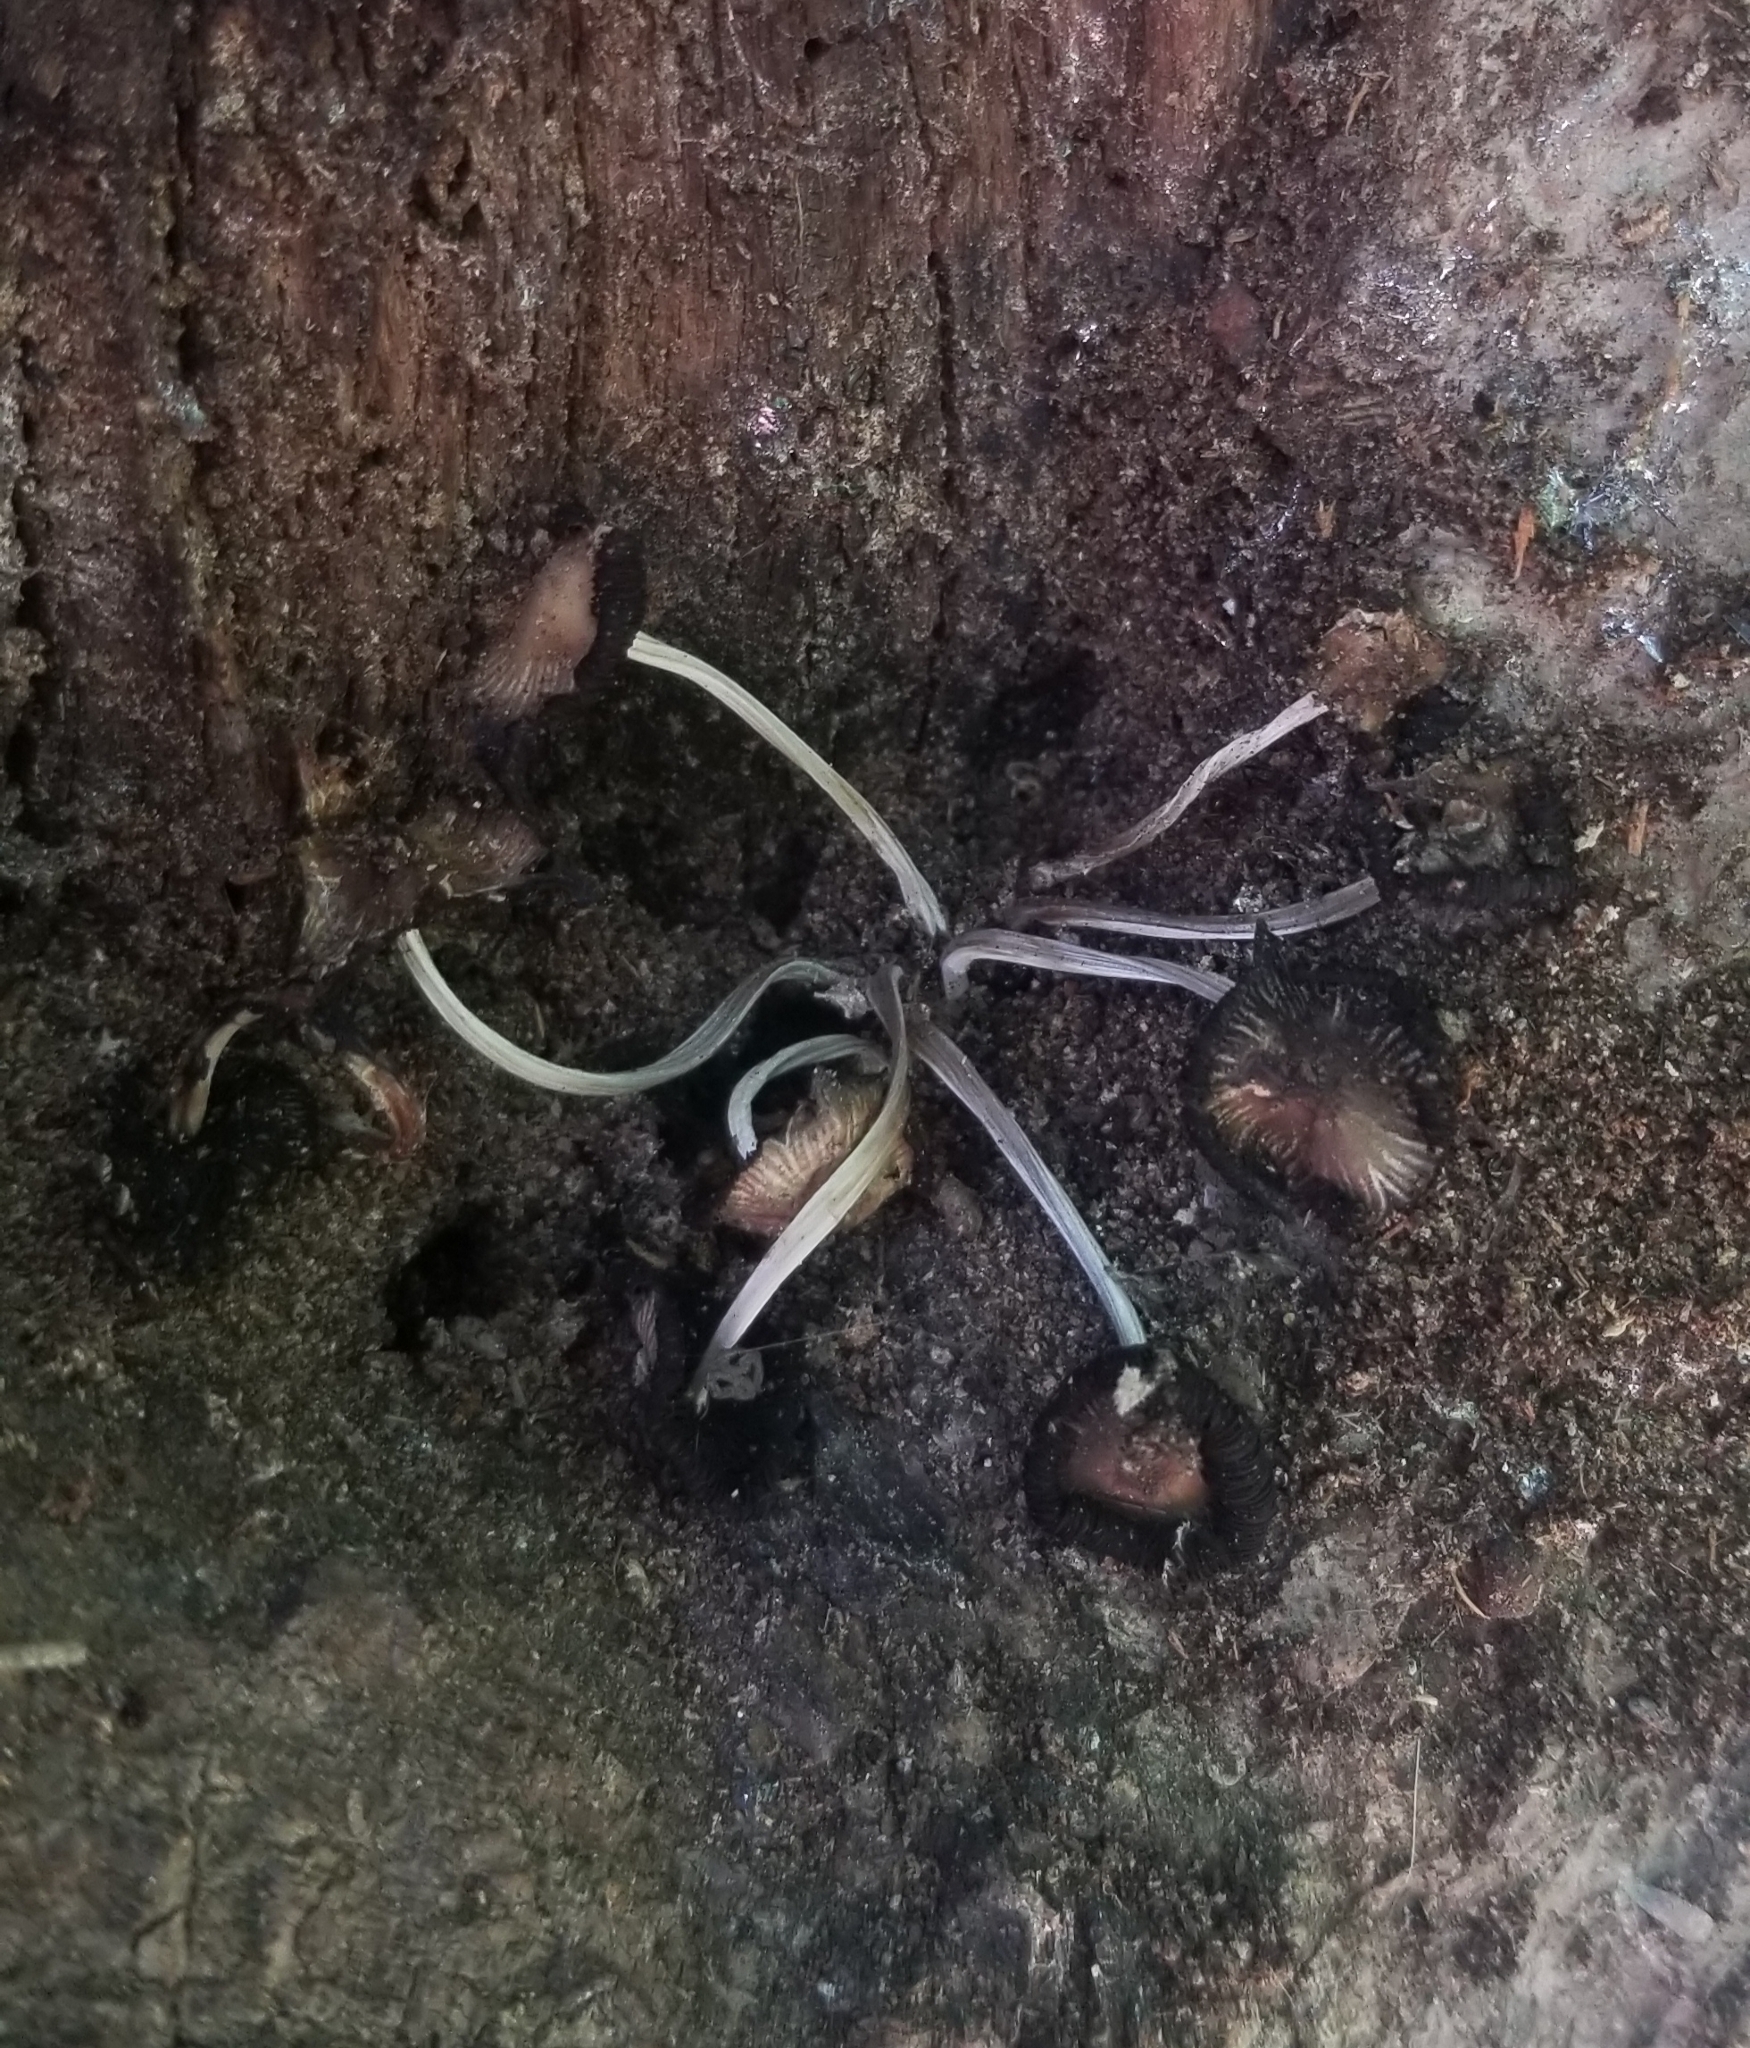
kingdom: Fungi
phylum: Basidiomycota
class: Agaricomycetes
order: Agaricales
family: Psathyrellaceae
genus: Parasola
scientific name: Parasola plicatilis
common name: Pleated inkcap
